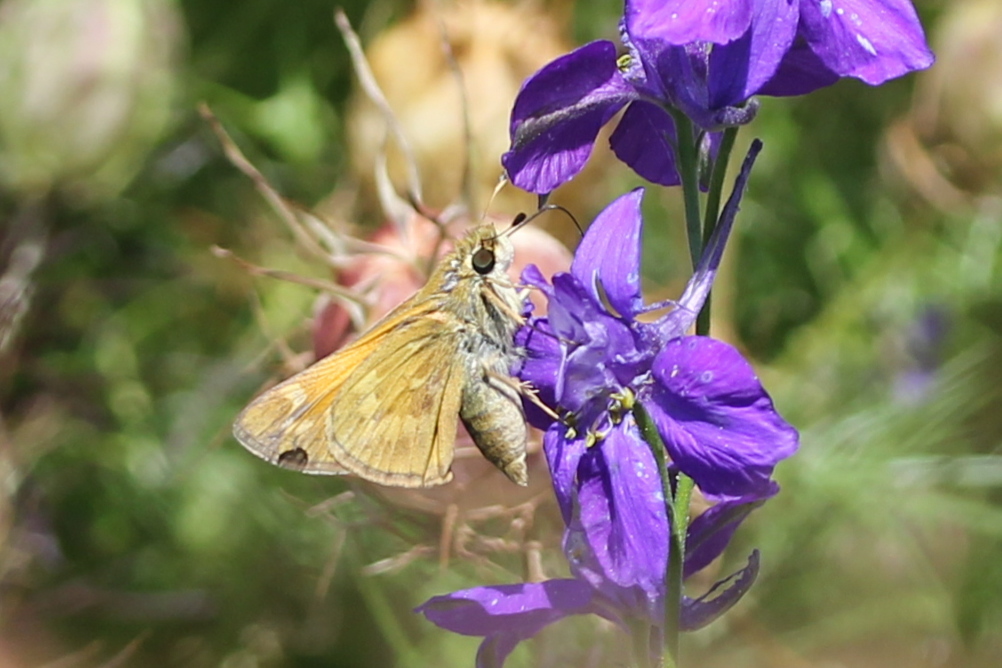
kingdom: Animalia
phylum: Arthropoda
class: Insecta
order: Lepidoptera
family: Hesperiidae
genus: Atalopedes
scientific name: Atalopedes
